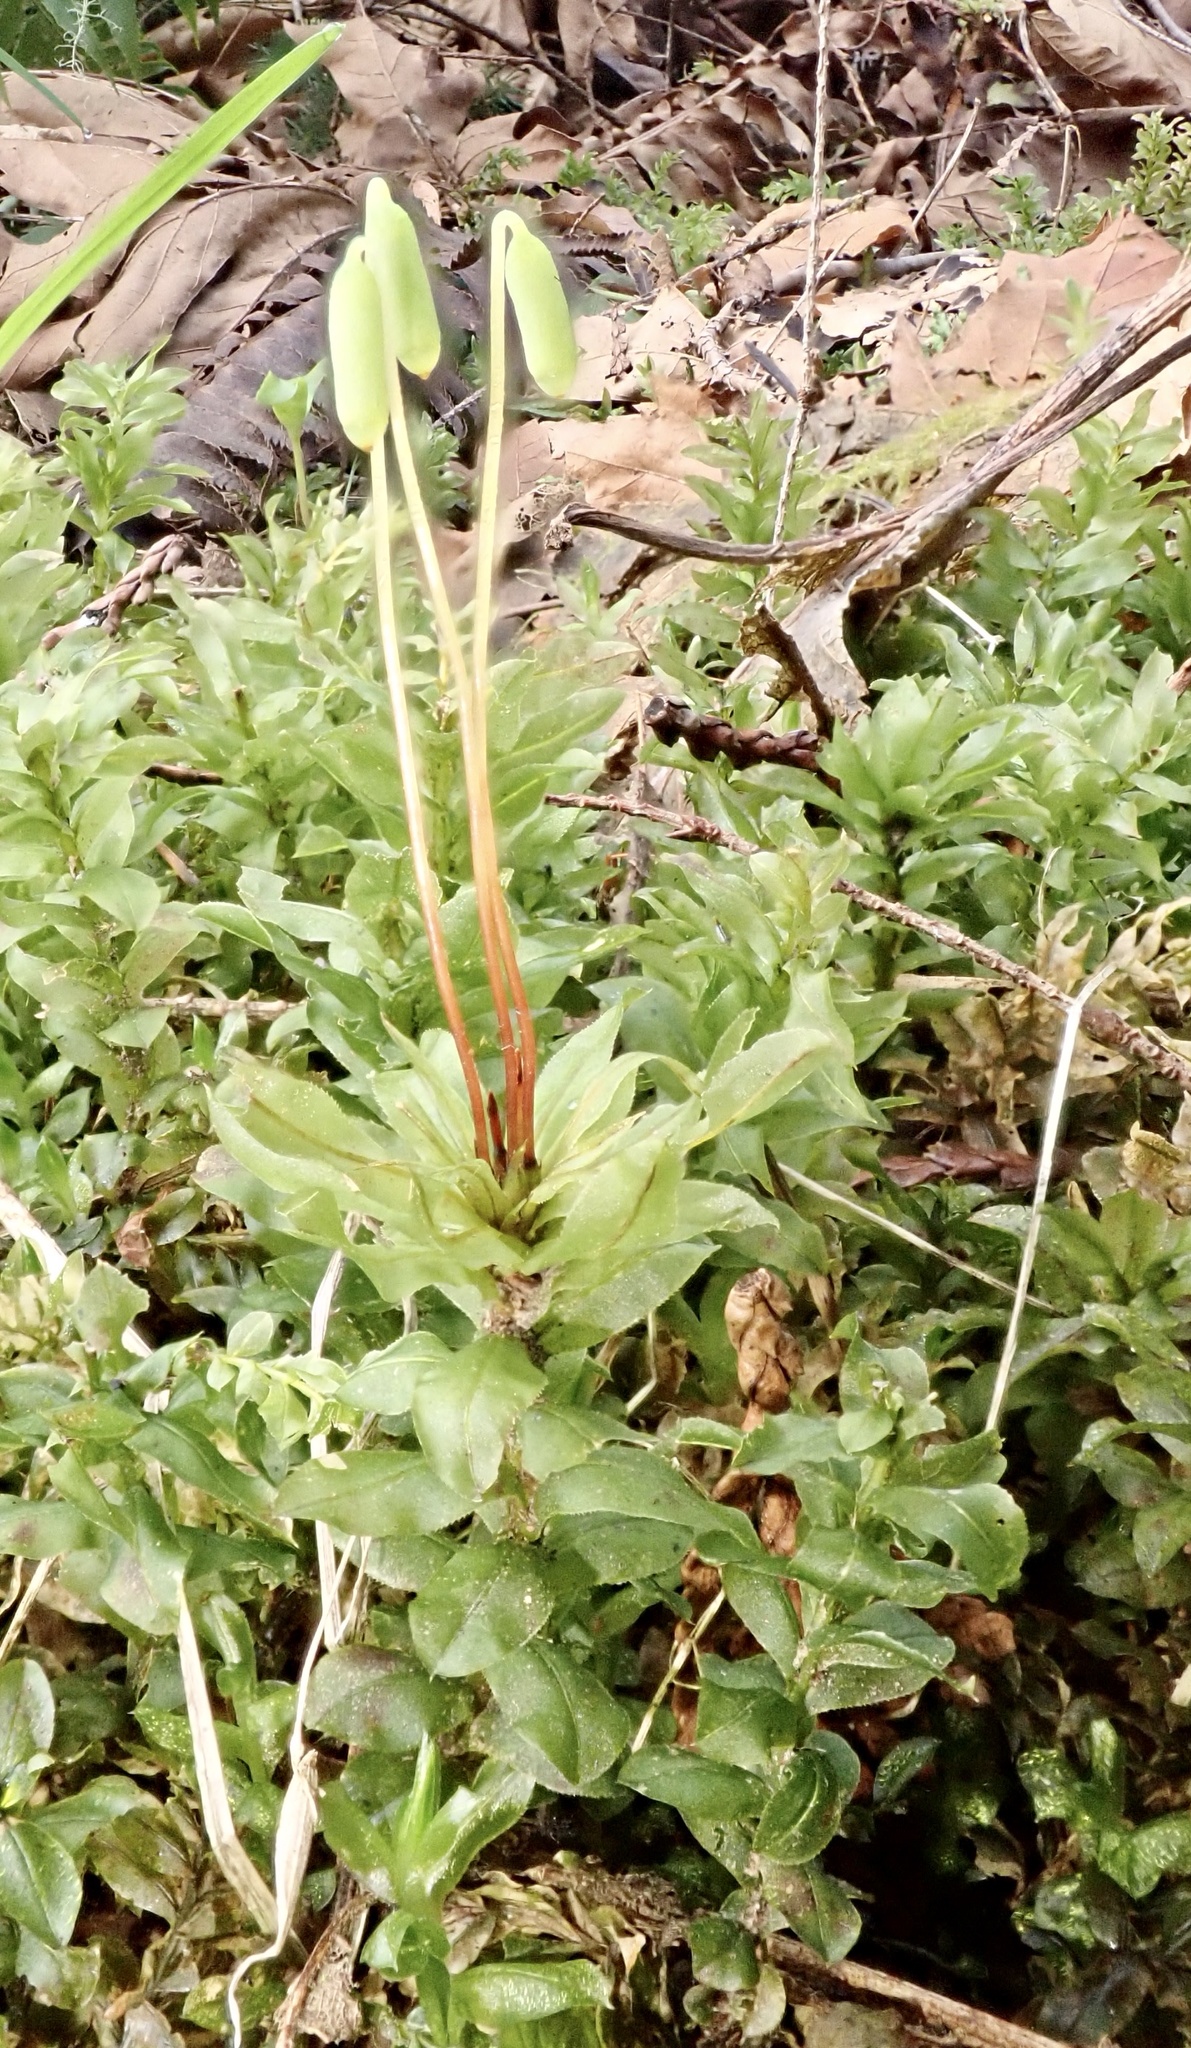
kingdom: Plantae
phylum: Bryophyta
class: Bryopsida
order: Bryales
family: Mniaceae
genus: Plagiomnium
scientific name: Plagiomnium insigne
